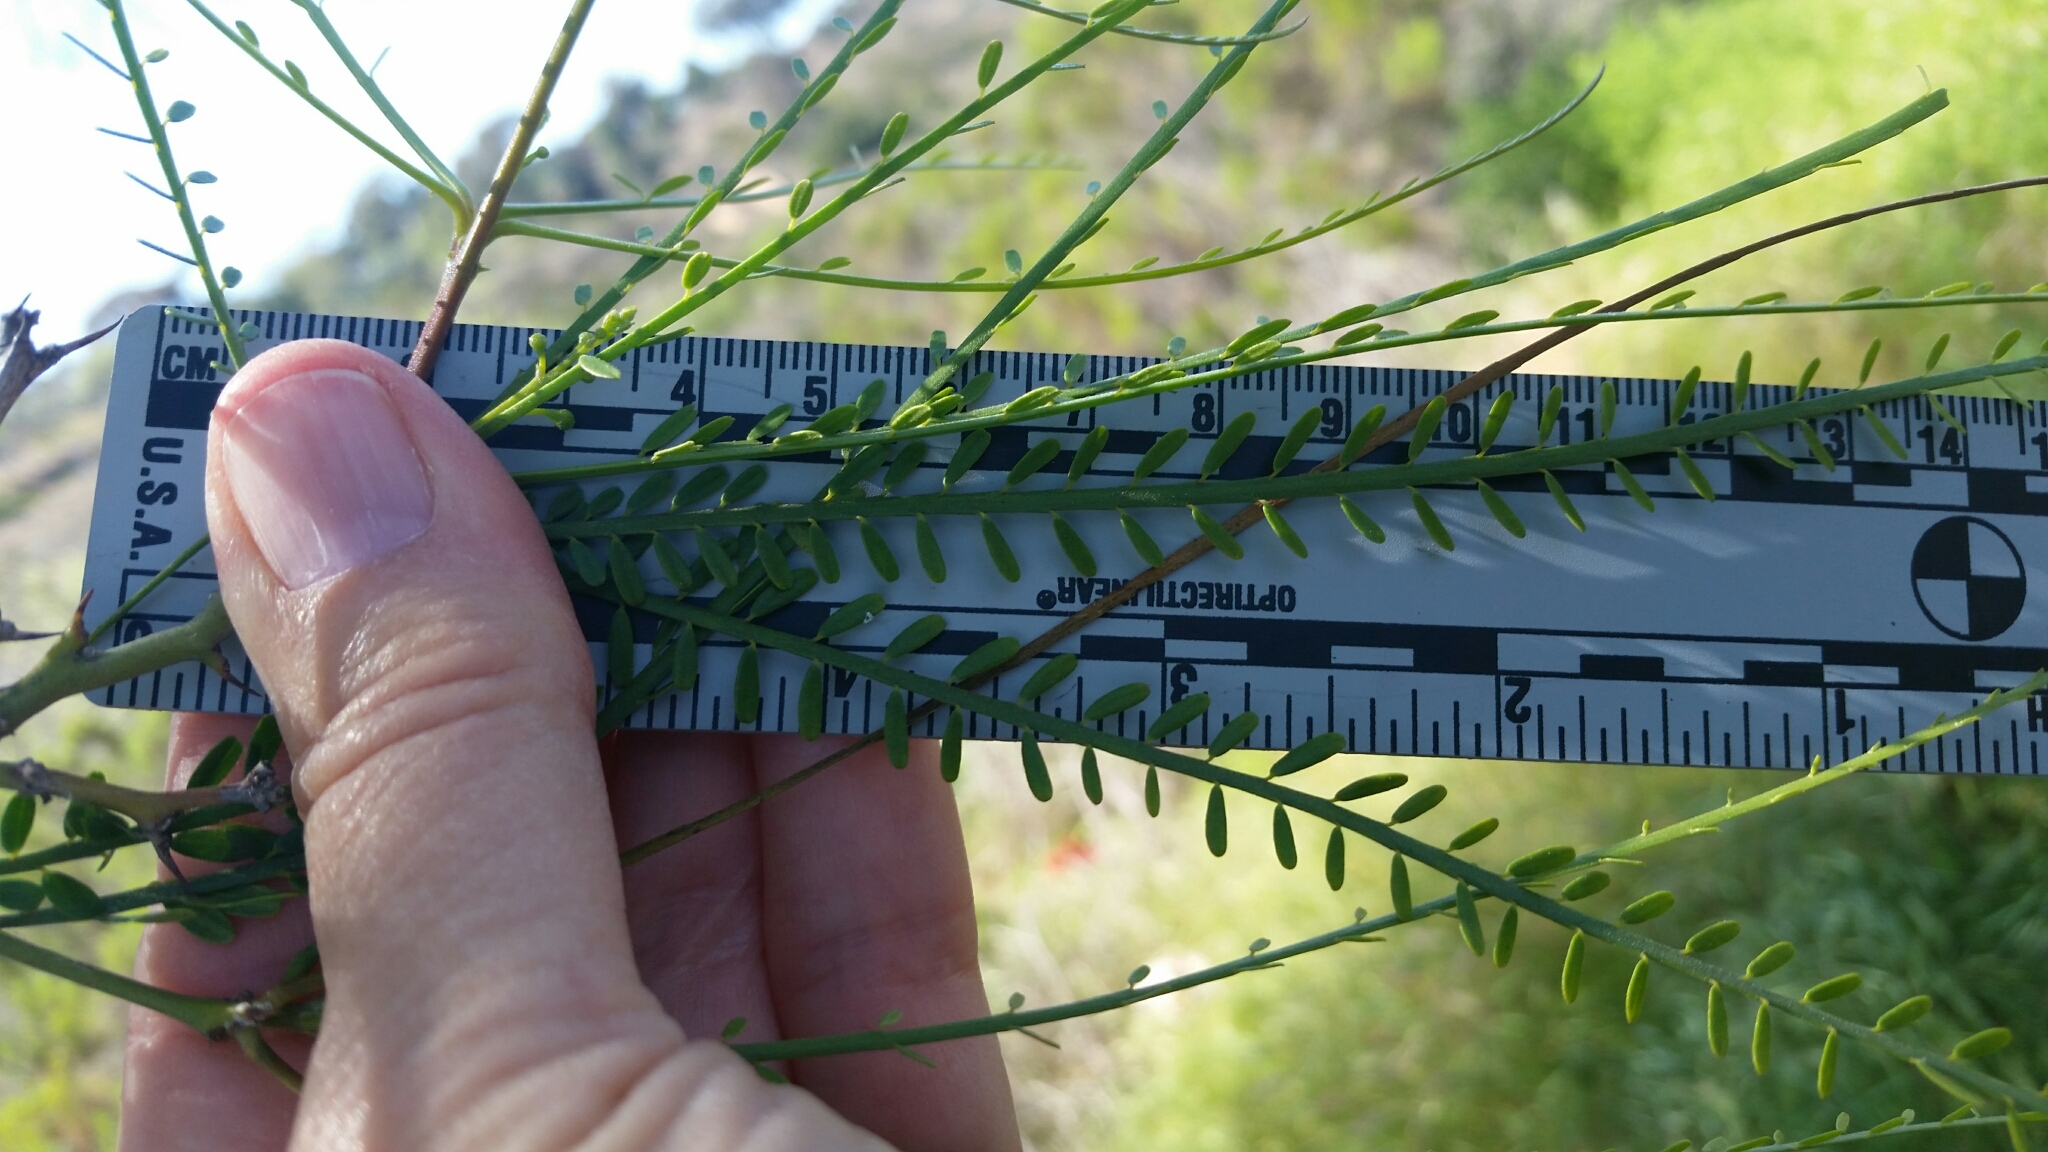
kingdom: Plantae
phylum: Tracheophyta
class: Magnoliopsida
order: Fabales
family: Fabaceae
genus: Parkinsonia
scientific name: Parkinsonia aculeata
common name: Jerusalem thorn
